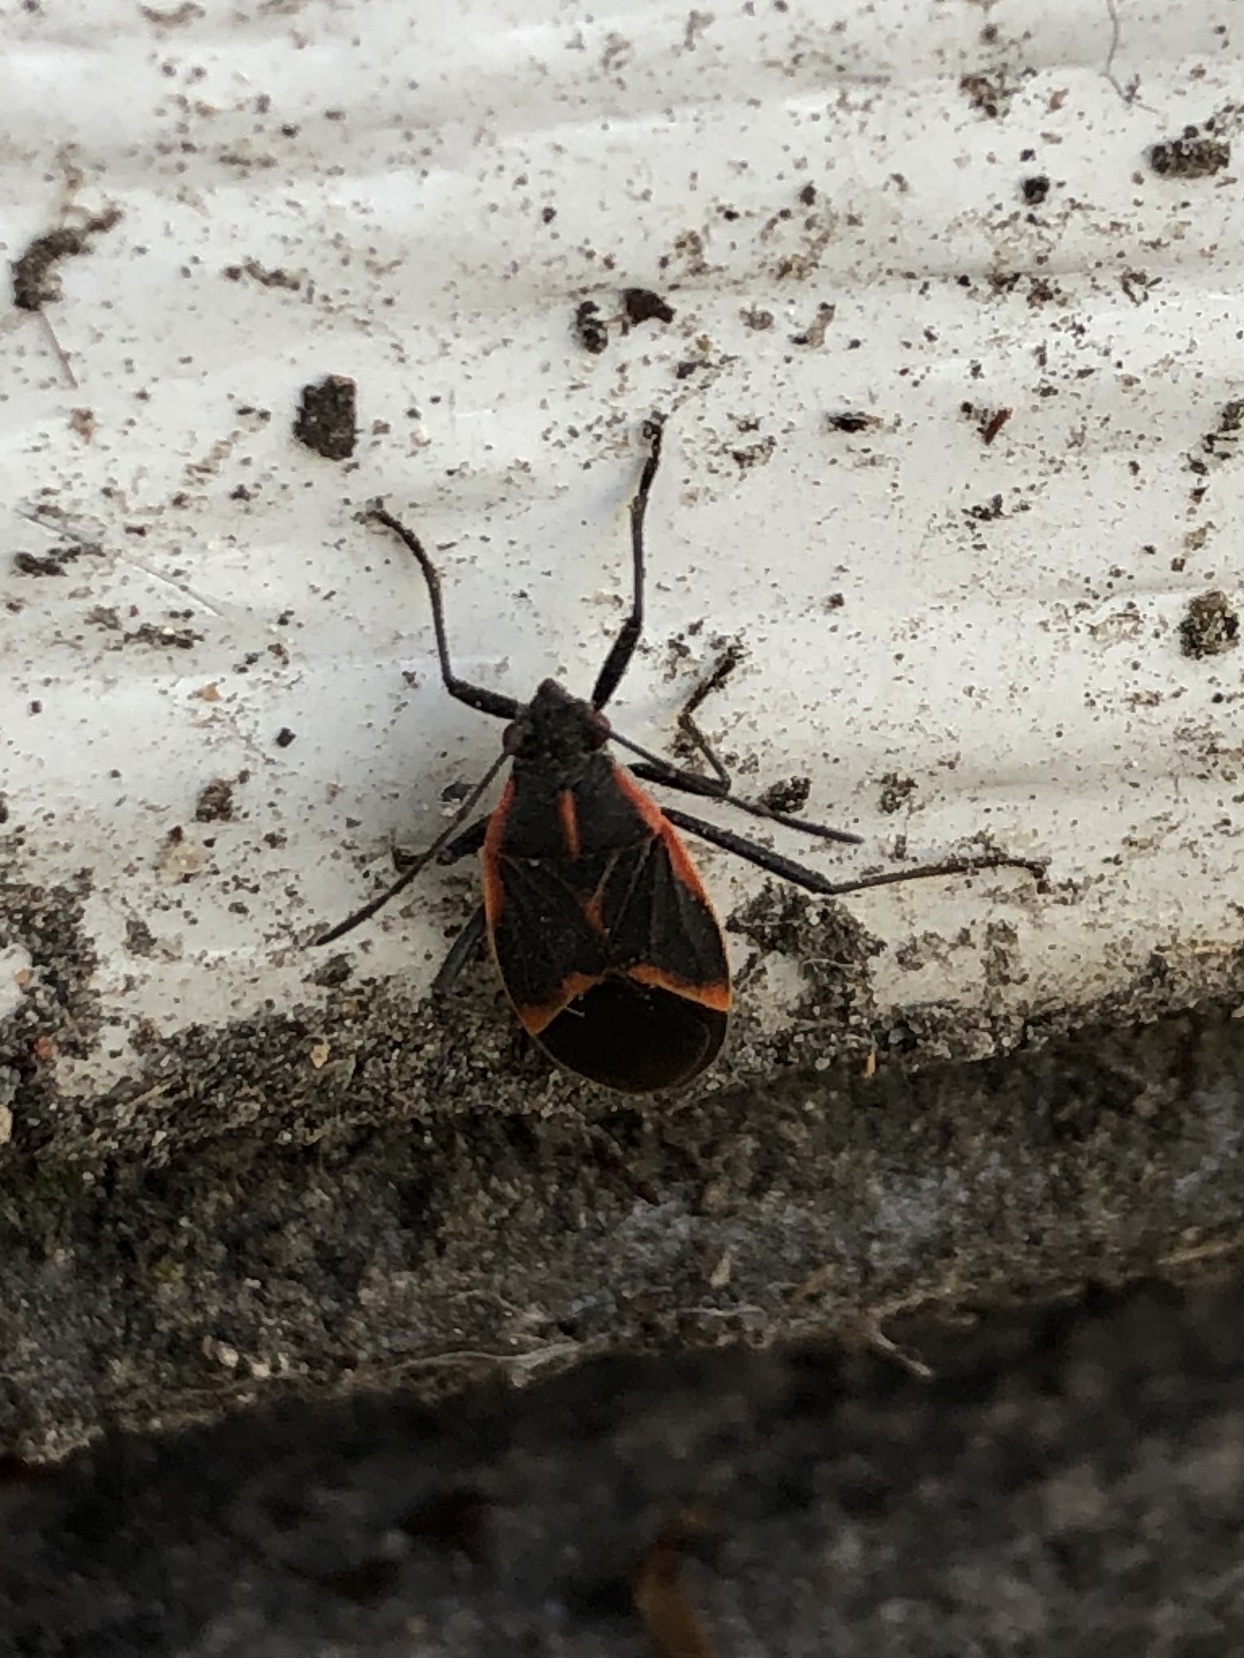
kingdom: Animalia
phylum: Arthropoda
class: Insecta
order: Hemiptera
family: Rhopalidae
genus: Boisea
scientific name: Boisea trivittata
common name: Boxelder bug
